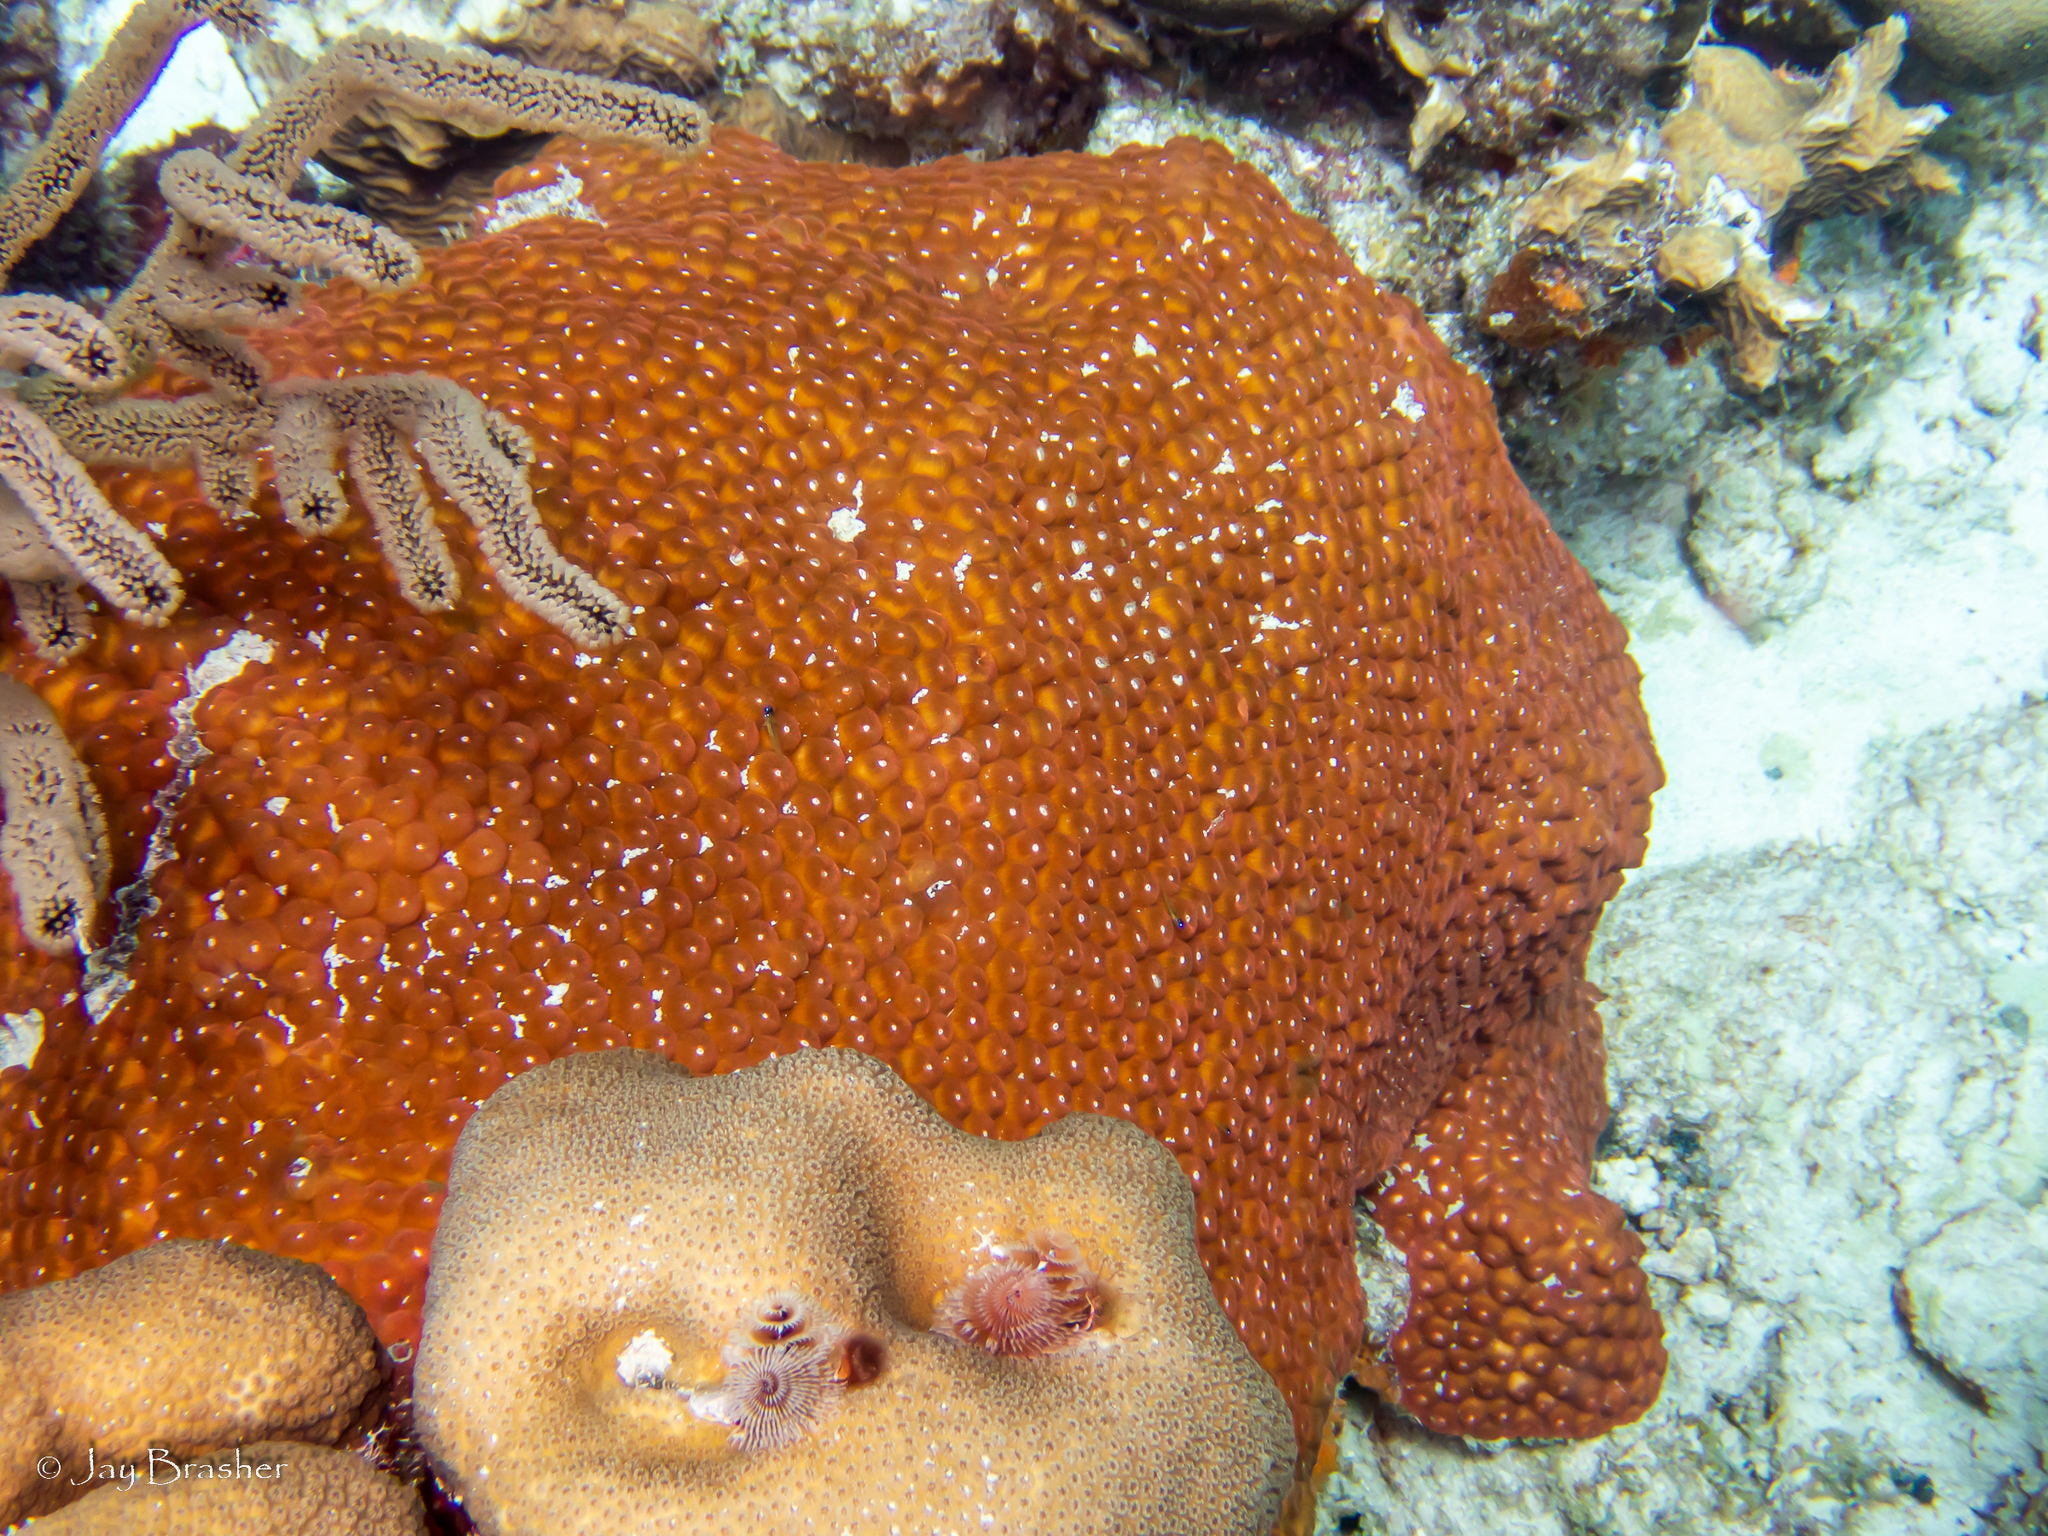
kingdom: Animalia
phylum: Cnidaria
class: Anthozoa
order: Scleractinia
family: Merulinidae
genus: Orbicella
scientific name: Orbicella annularis
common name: Boulder star coral
